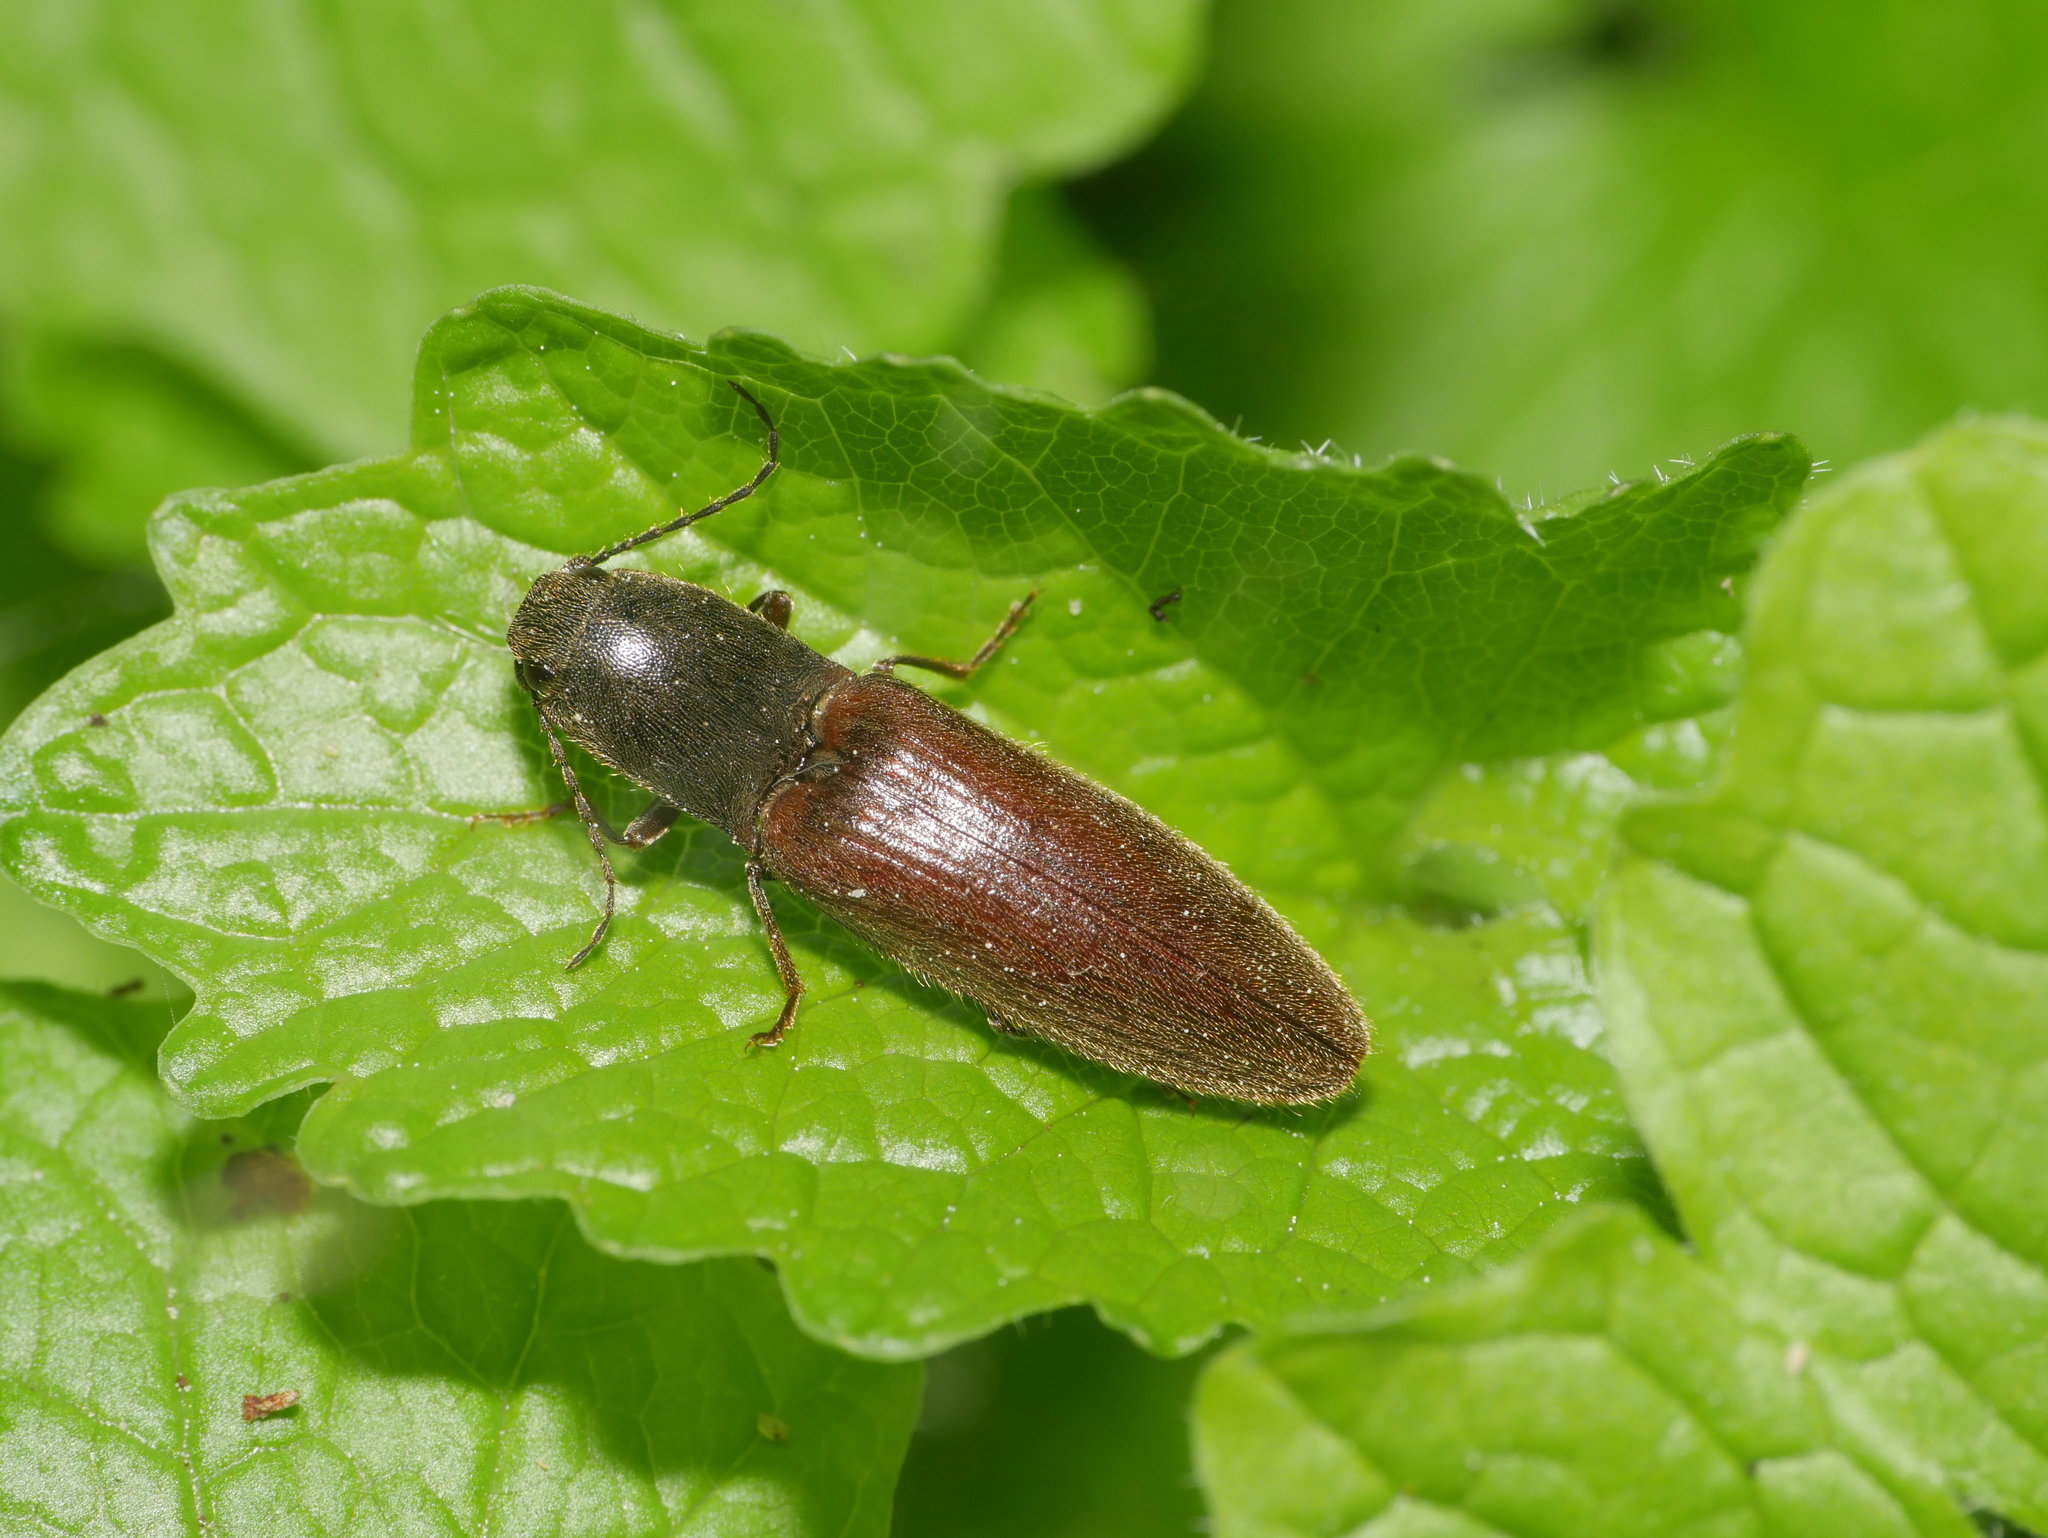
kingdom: Animalia
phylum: Arthropoda
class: Insecta
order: Coleoptera
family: Elateridae
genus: Athous
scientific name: Athous haemorrhoidalis
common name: Red-brown click beetle
